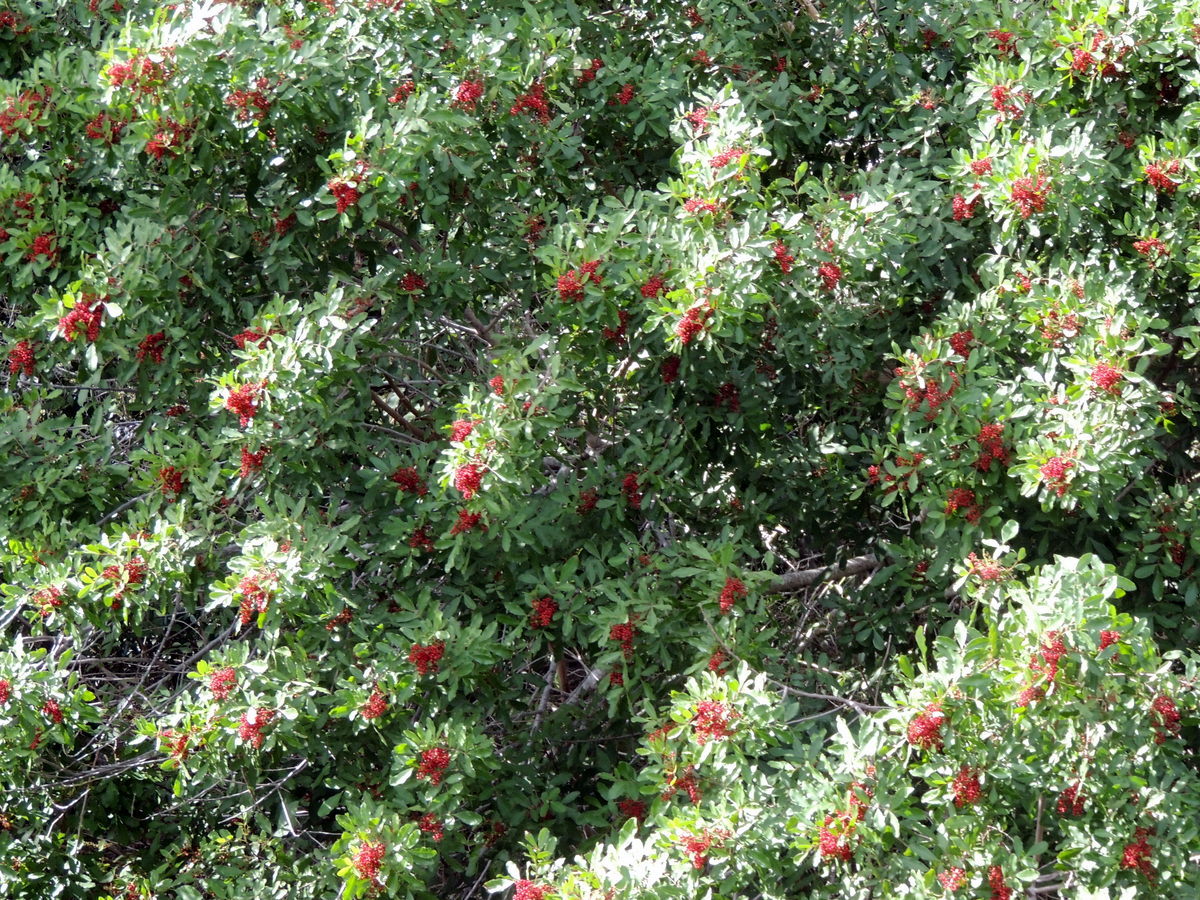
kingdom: Plantae
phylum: Tracheophyta
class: Magnoliopsida
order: Sapindales
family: Anacardiaceae
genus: Schinus
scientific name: Schinus terebinthifolia
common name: Brazilian peppertree
